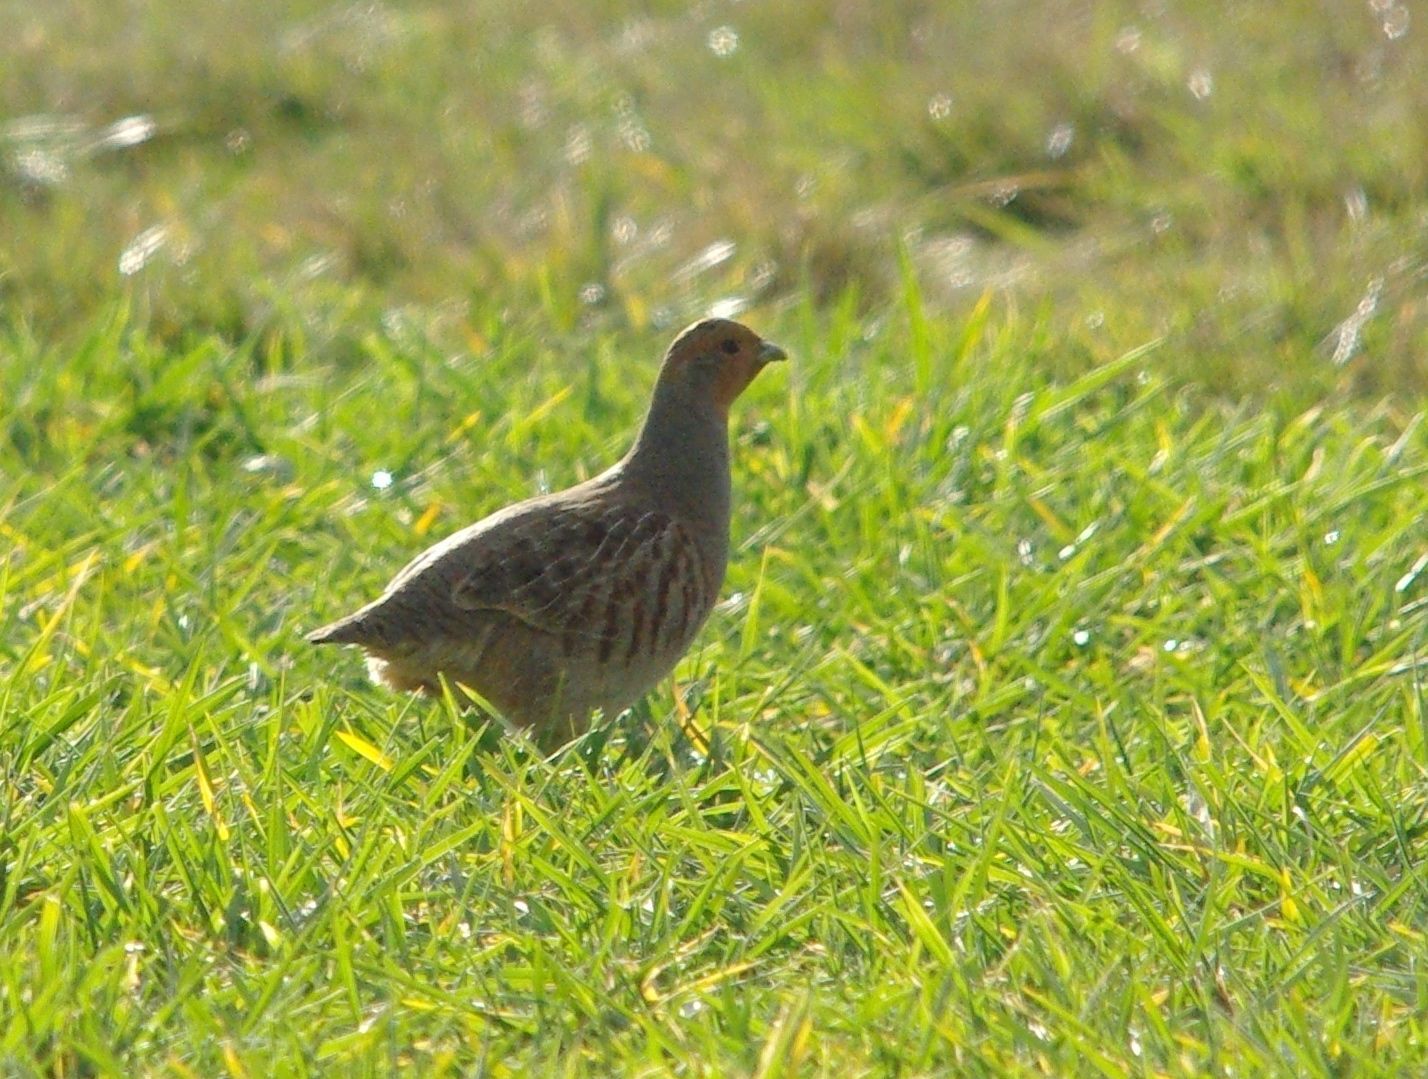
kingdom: Animalia
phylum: Chordata
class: Aves
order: Galliformes
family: Phasianidae
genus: Perdix
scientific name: Perdix perdix
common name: Grey partridge
